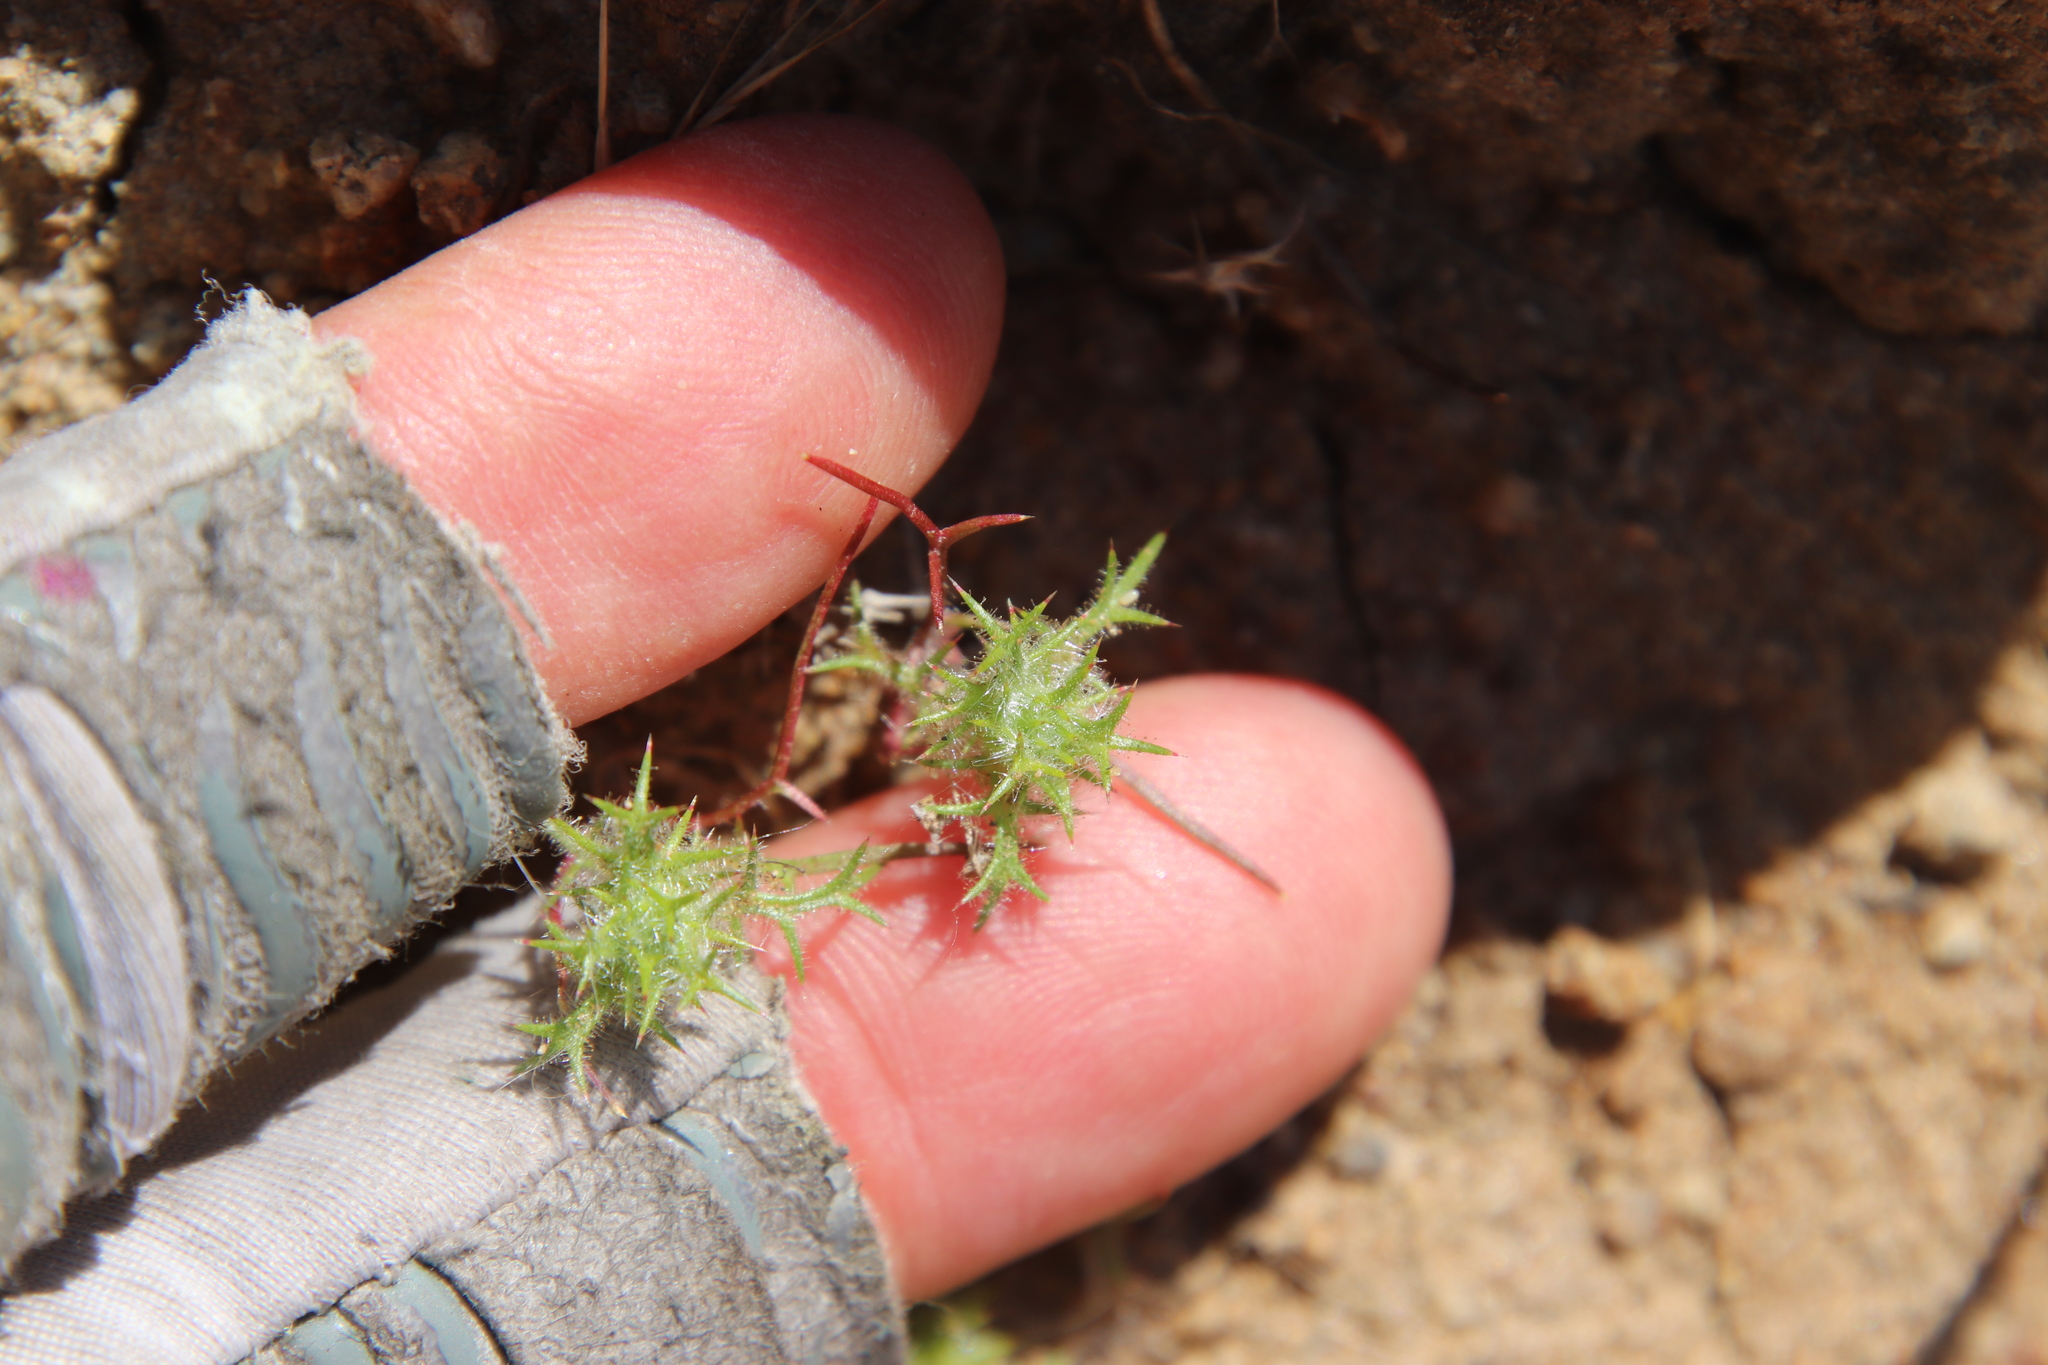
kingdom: Plantae
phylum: Tracheophyta
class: Magnoliopsida
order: Ericales
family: Polemoniaceae
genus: Navarretia
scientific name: Navarretia hamata
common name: Hooked navarretia
